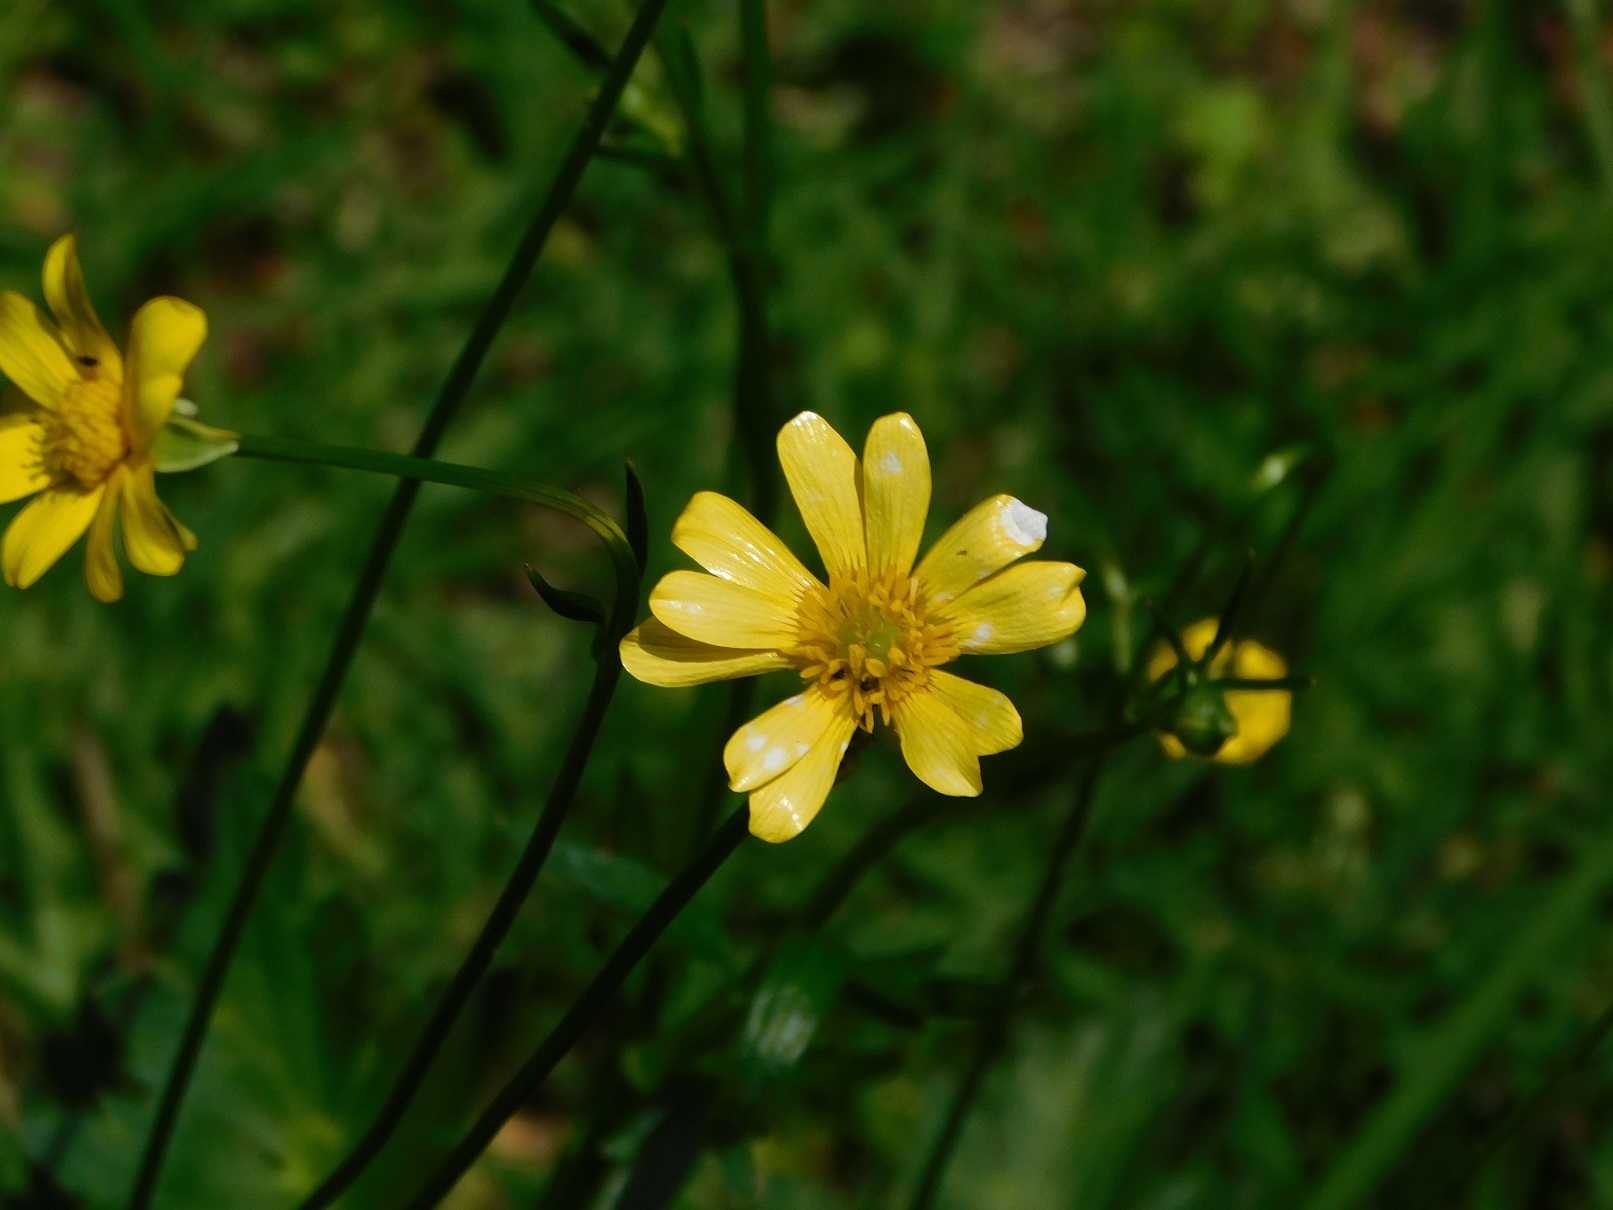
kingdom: Plantae
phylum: Tracheophyta
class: Magnoliopsida
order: Ranunculales
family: Ranunculaceae
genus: Ranunculus
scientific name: Ranunculus petiolaris
